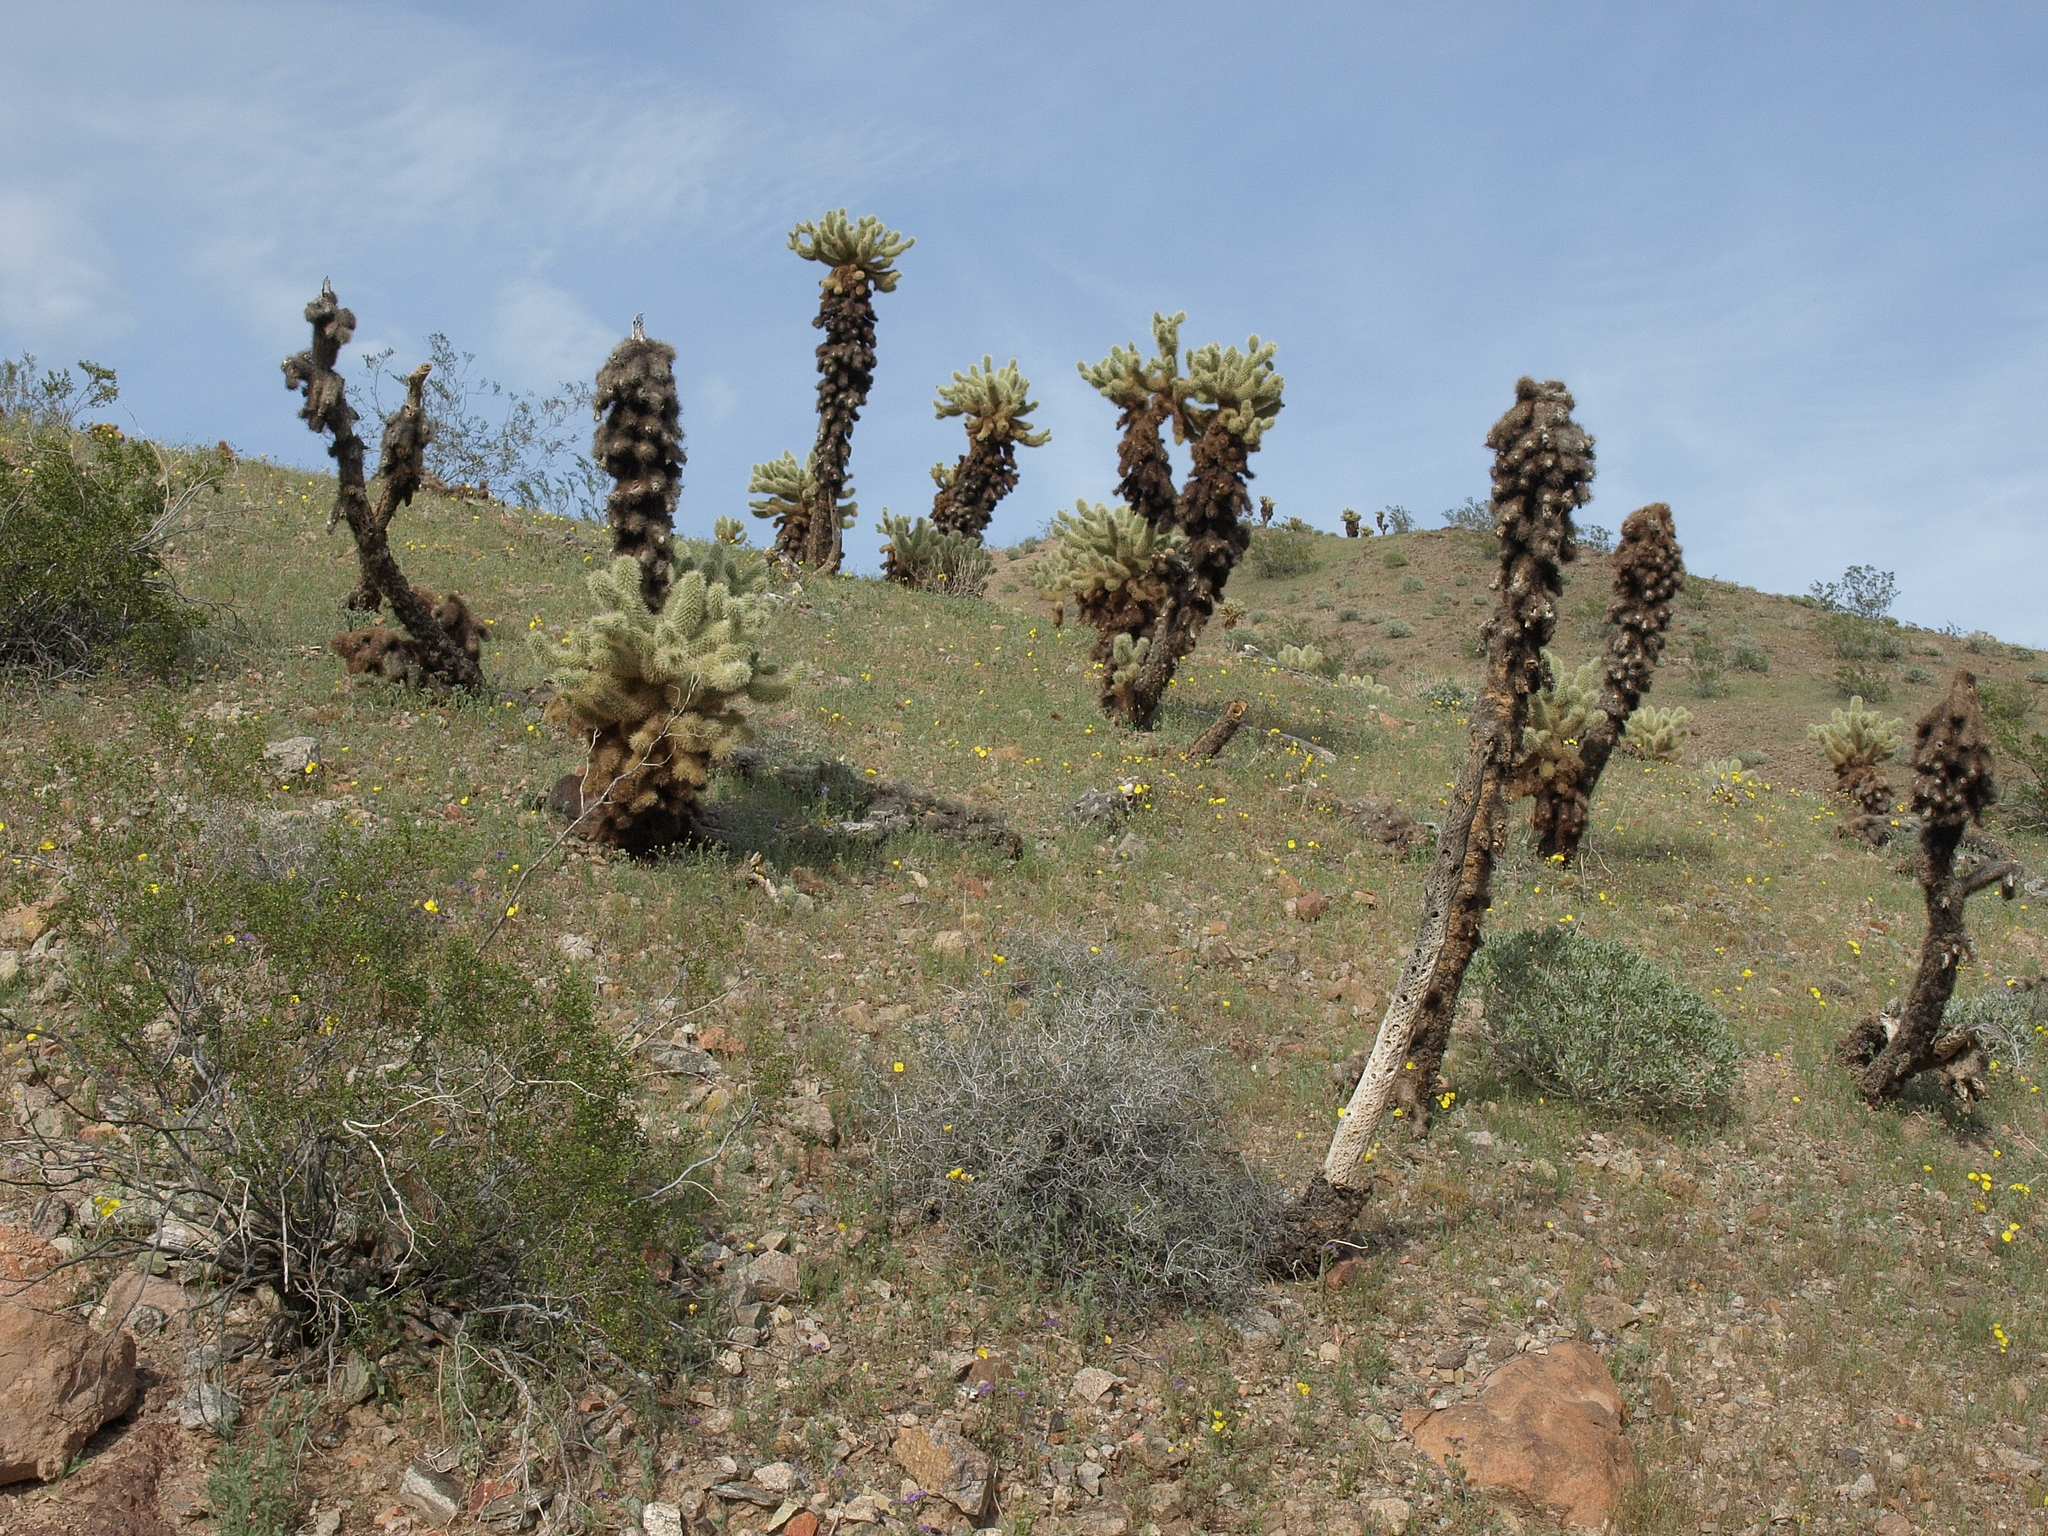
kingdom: Plantae
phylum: Tracheophyta
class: Magnoliopsida
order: Caryophyllales
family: Cactaceae
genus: Cylindropuntia
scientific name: Cylindropuntia fosbergii
